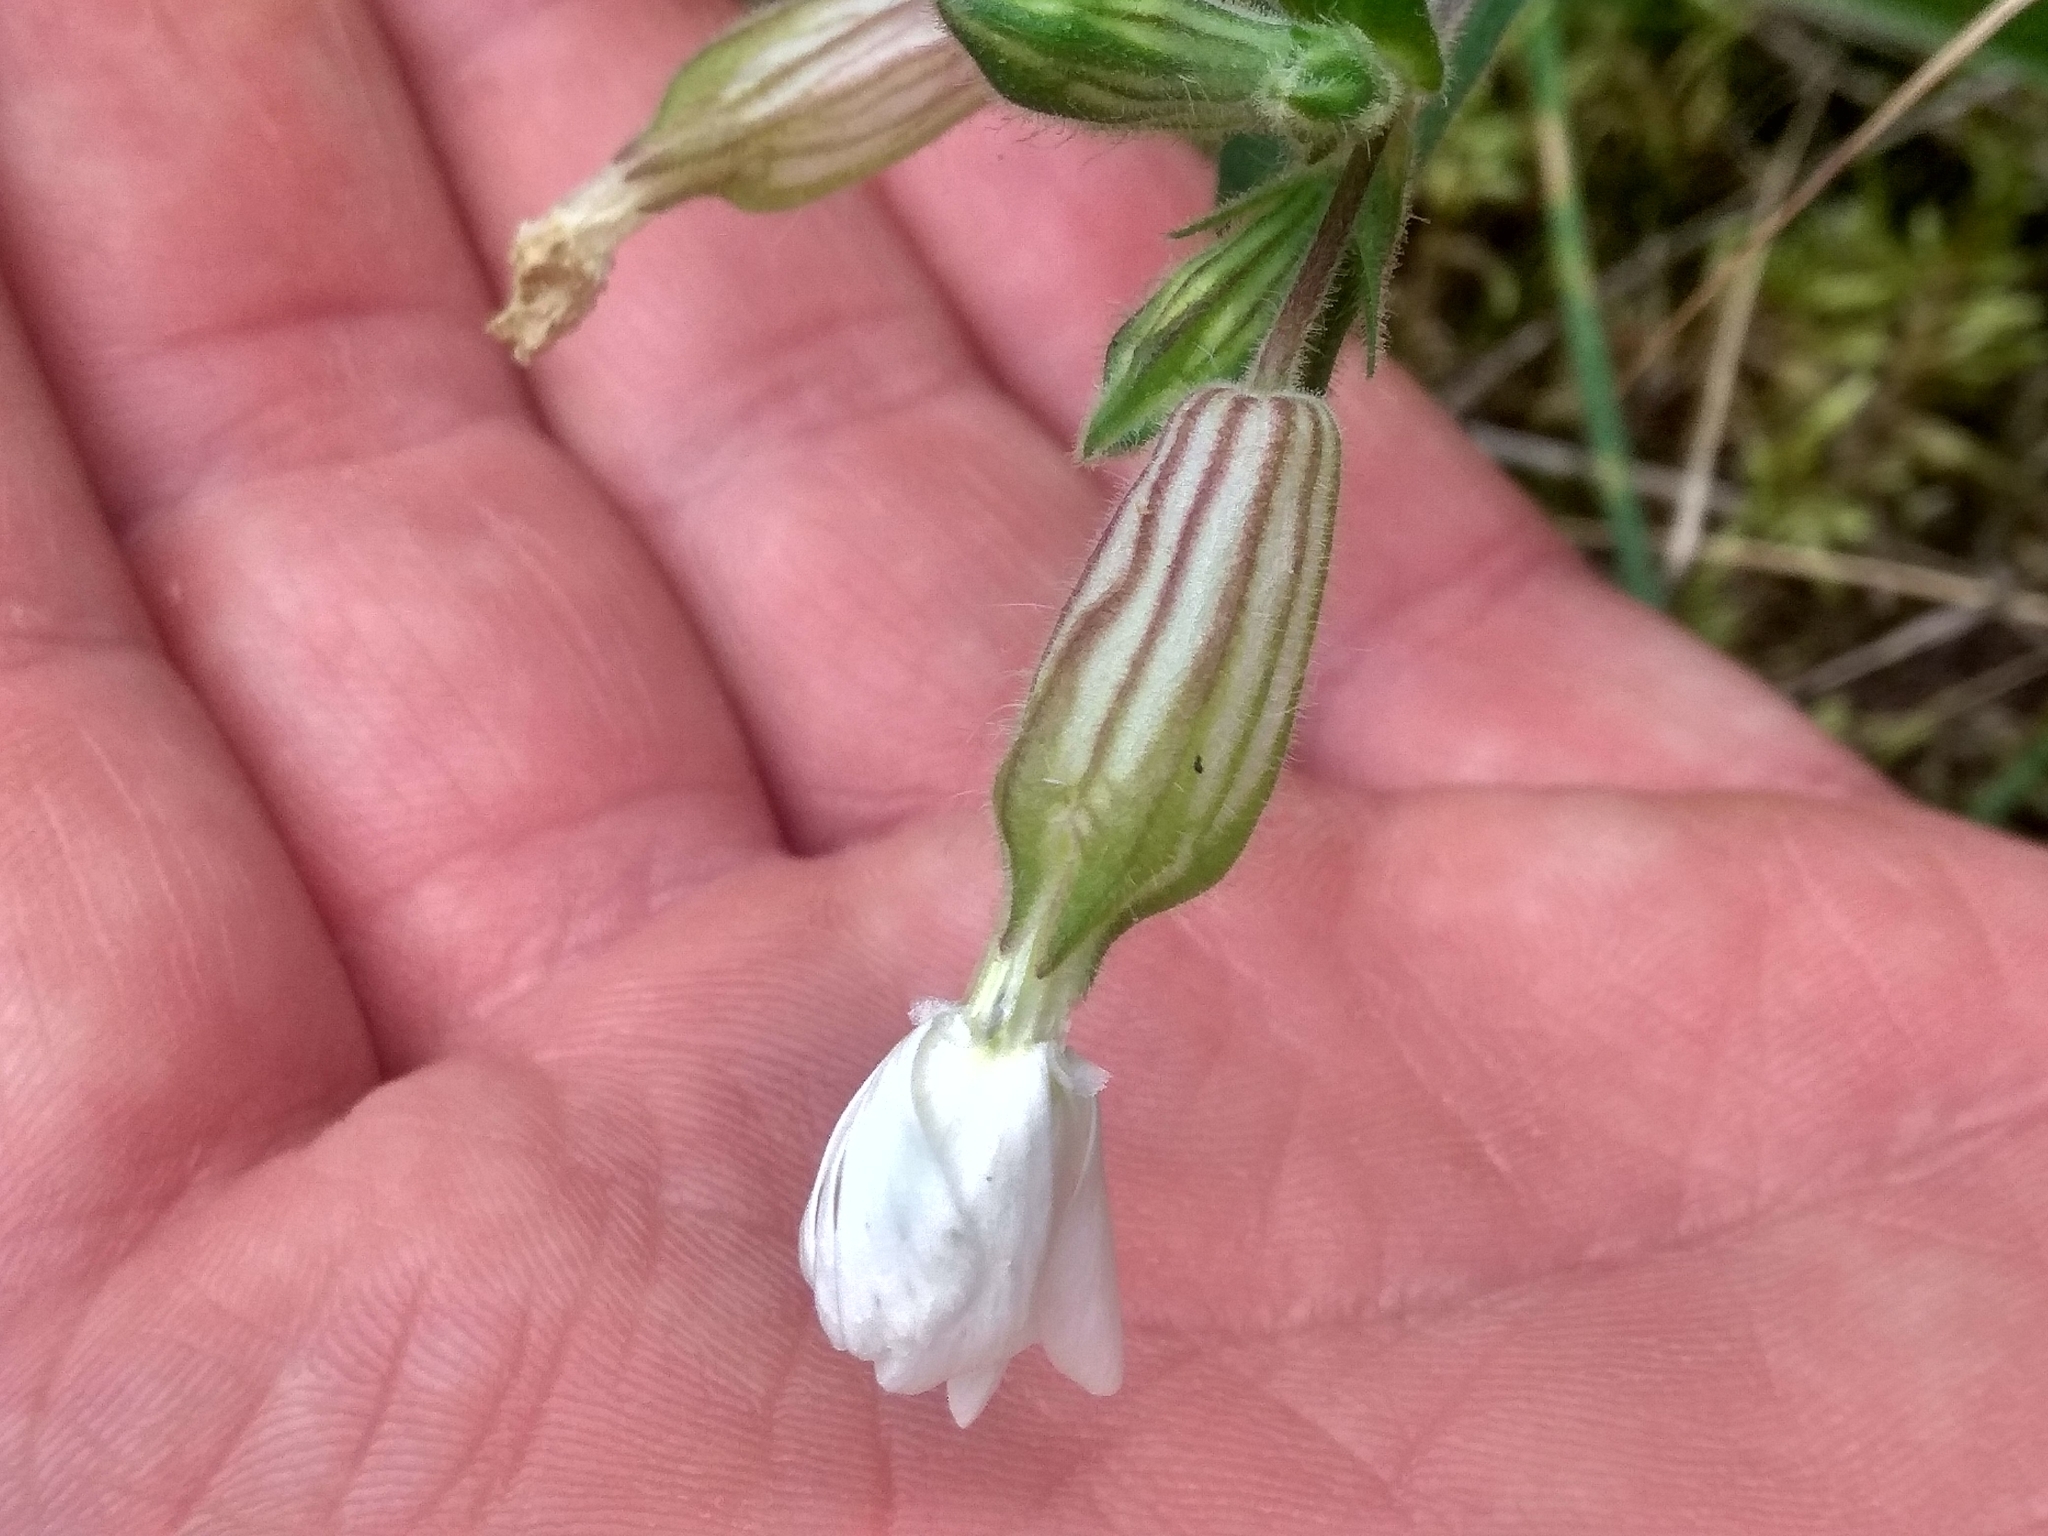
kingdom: Plantae
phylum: Tracheophyta
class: Magnoliopsida
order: Caryophyllales
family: Caryophyllaceae
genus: Silene
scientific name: Silene latifolia
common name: White campion
